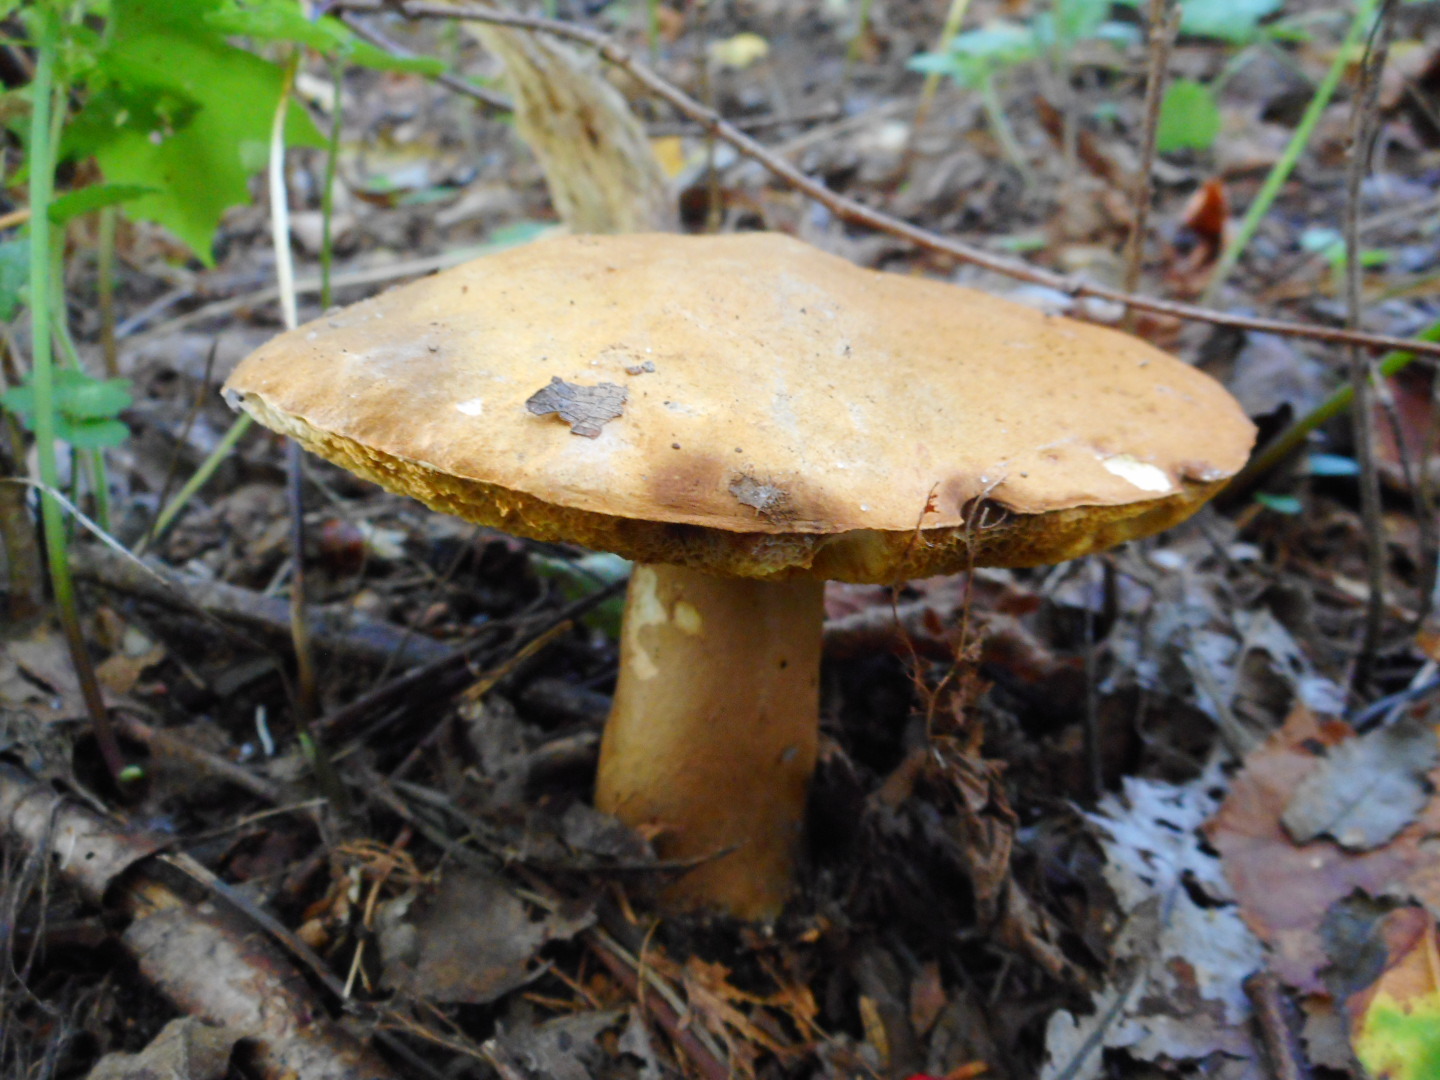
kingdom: Fungi
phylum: Basidiomycota
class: Agaricomycetes
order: Boletales
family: Gyroporaceae
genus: Gyroporus
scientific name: Gyroporus castaneus
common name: Chestnut bolete
